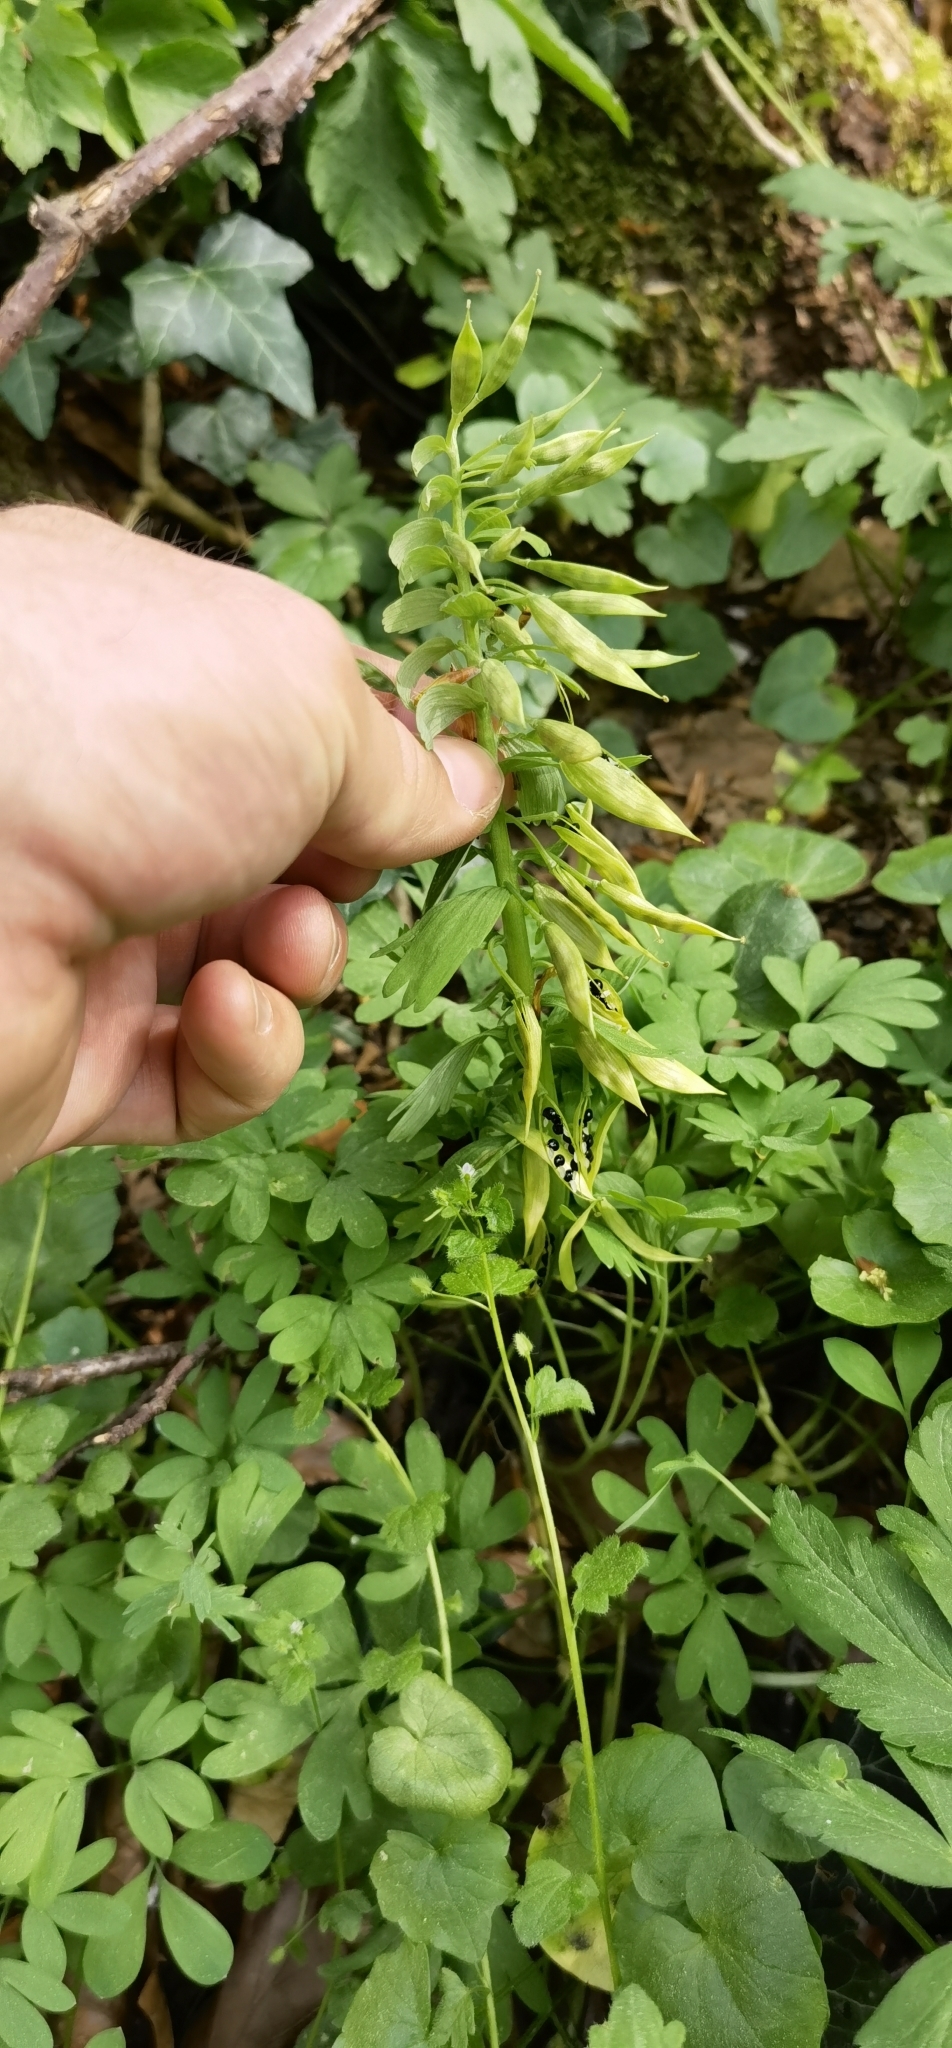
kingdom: Plantae
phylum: Tracheophyta
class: Magnoliopsida
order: Ranunculales
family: Papaveraceae
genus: Corydalis
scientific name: Corydalis solida
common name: Bird-in-a-bush
